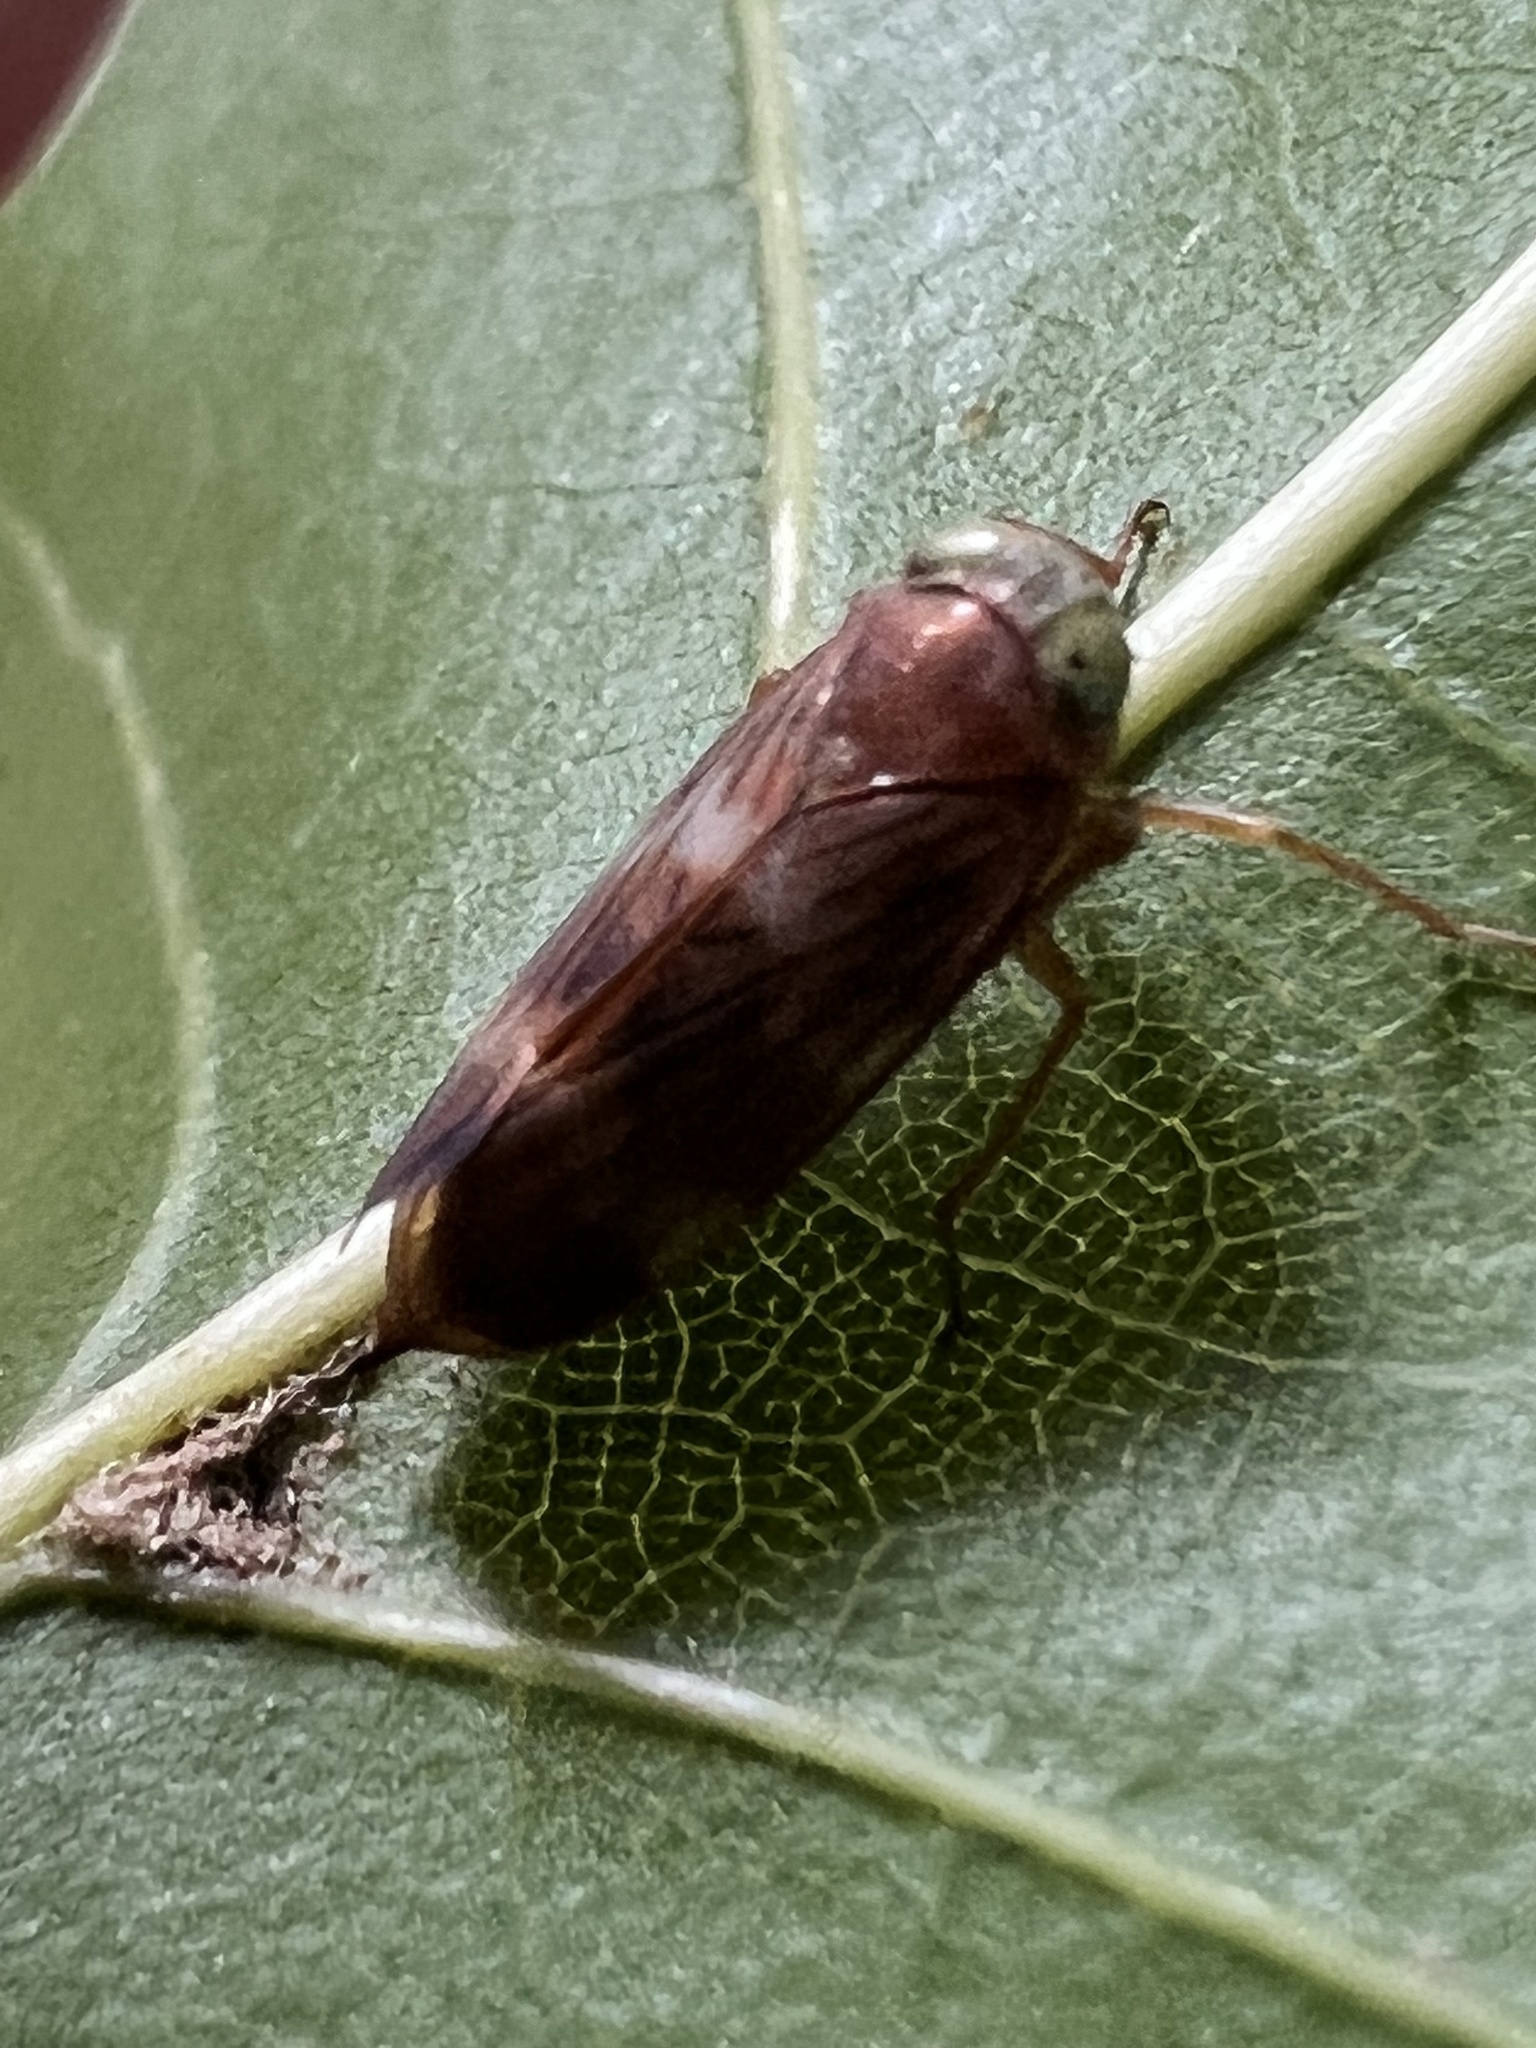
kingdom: Animalia
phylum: Arthropoda
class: Insecta
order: Hemiptera
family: Cicadellidae
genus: Jikradia
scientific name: Jikradia olitoria
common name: Coppery leafhopper
